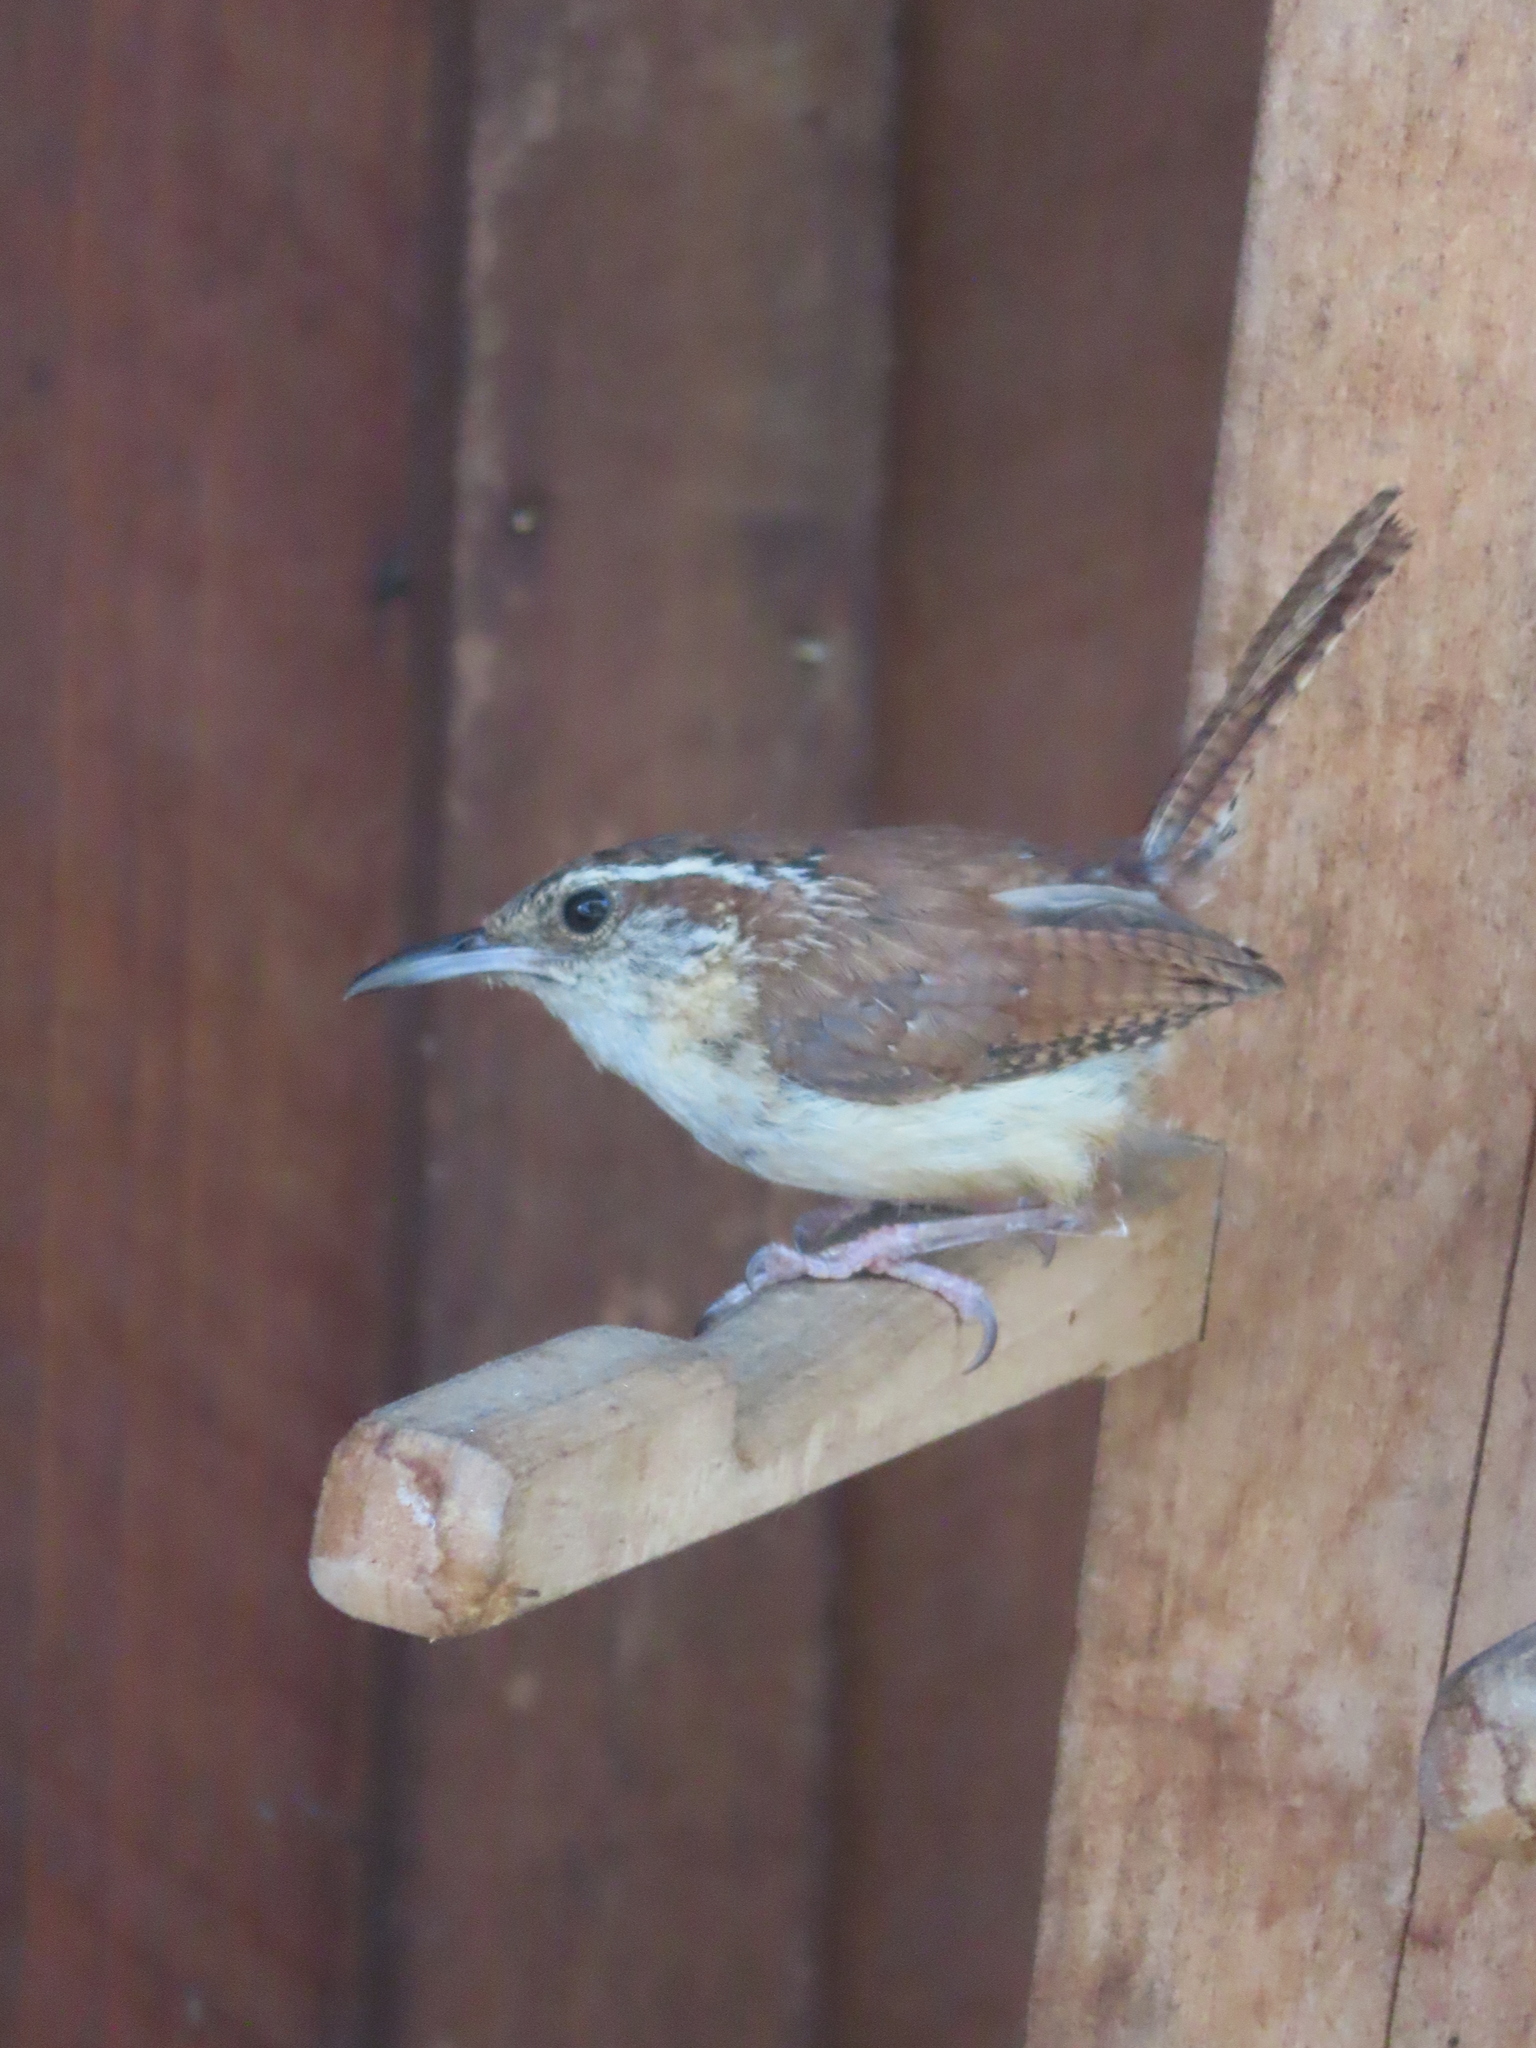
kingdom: Animalia
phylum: Chordata
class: Aves
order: Passeriformes
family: Troglodytidae
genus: Thryothorus
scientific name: Thryothorus ludovicianus
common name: Carolina wren
